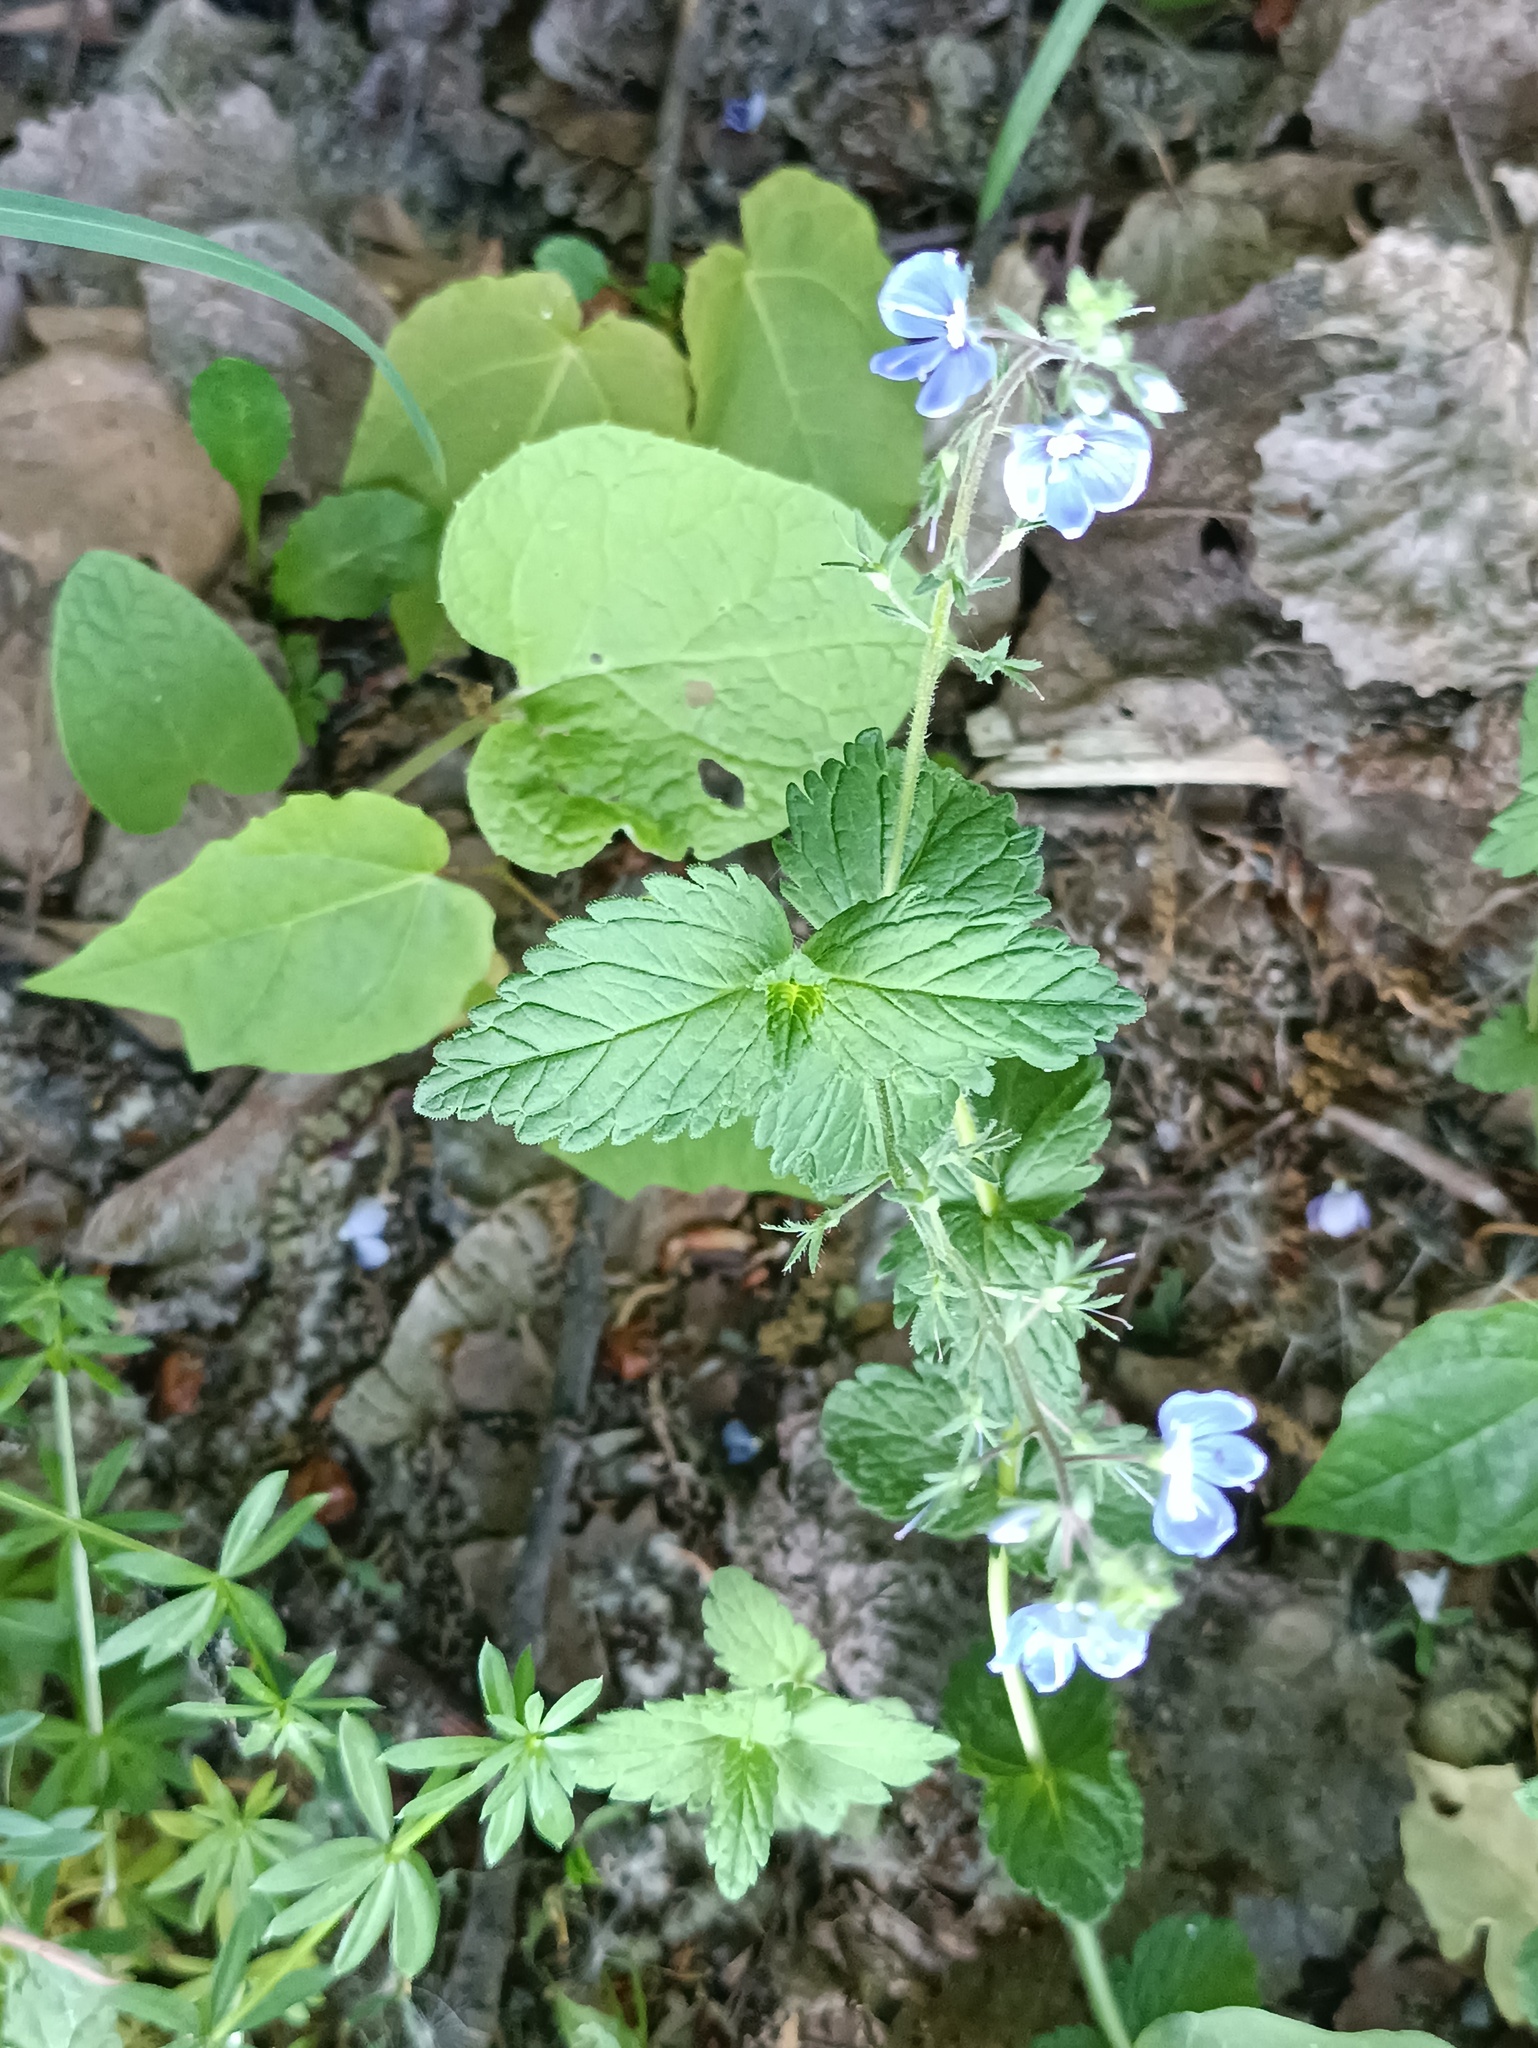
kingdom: Plantae
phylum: Tracheophyta
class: Magnoliopsida
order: Lamiales
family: Plantaginaceae
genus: Veronica
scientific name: Veronica chamaedrys
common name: Germander speedwell
